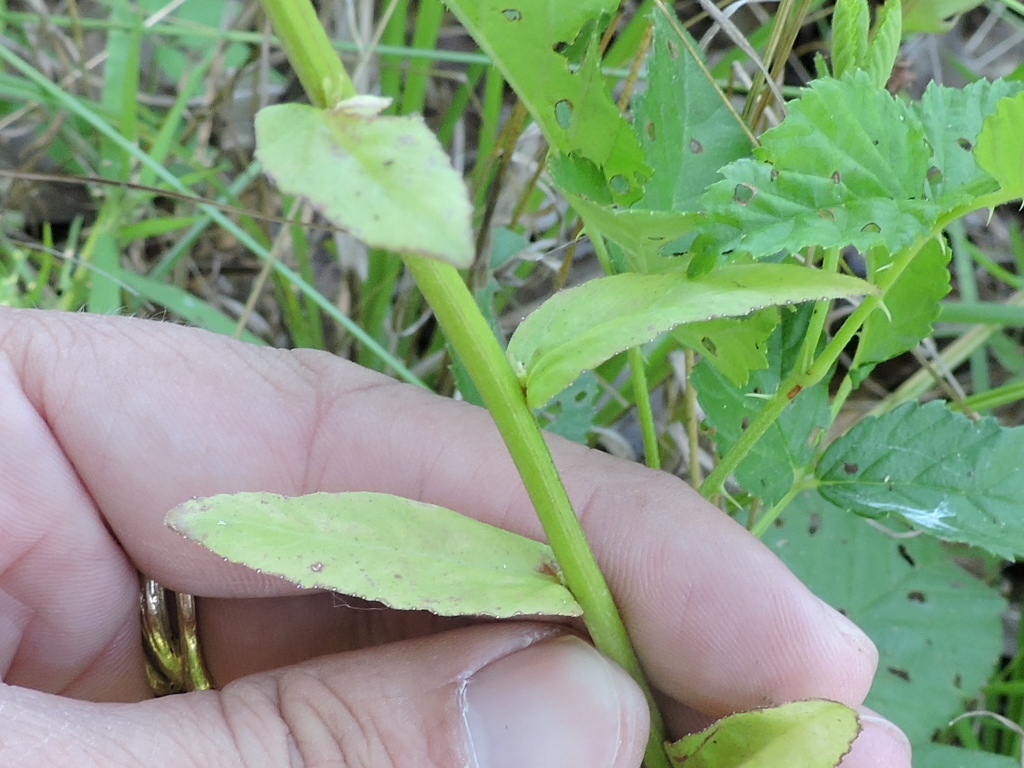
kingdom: Plantae
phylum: Tracheophyta
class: Magnoliopsida
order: Asterales
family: Campanulaceae
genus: Lobelia
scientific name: Lobelia appendiculata
